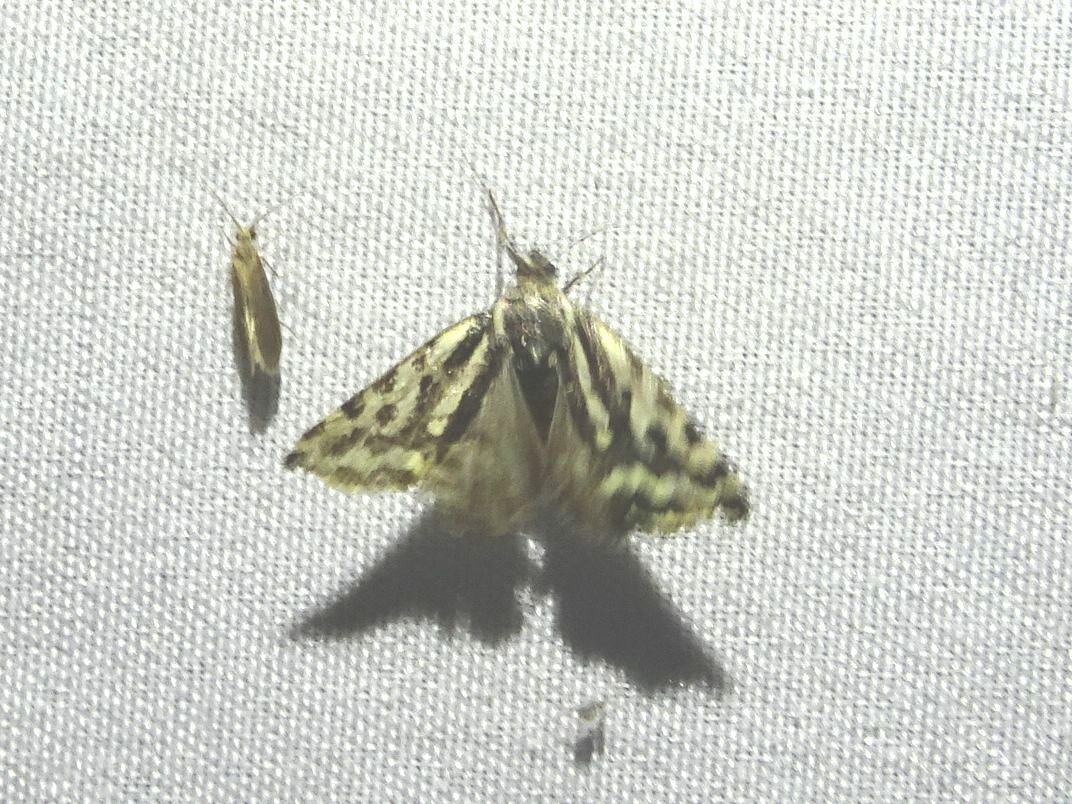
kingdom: Animalia
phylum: Arthropoda
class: Insecta
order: Lepidoptera
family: Noctuidae
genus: Acontia
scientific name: Acontia trabealis
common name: Spotted sulphur
